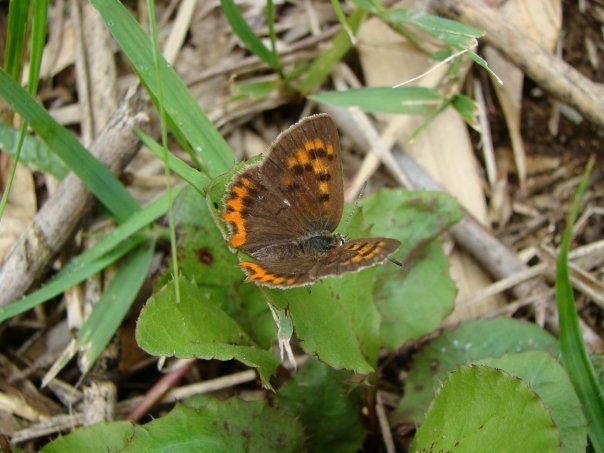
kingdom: Animalia
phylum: Arthropoda
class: Insecta
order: Lepidoptera
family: Lycaenidae
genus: Lycaena
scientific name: Lycaena phlaeas
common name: Small copper
